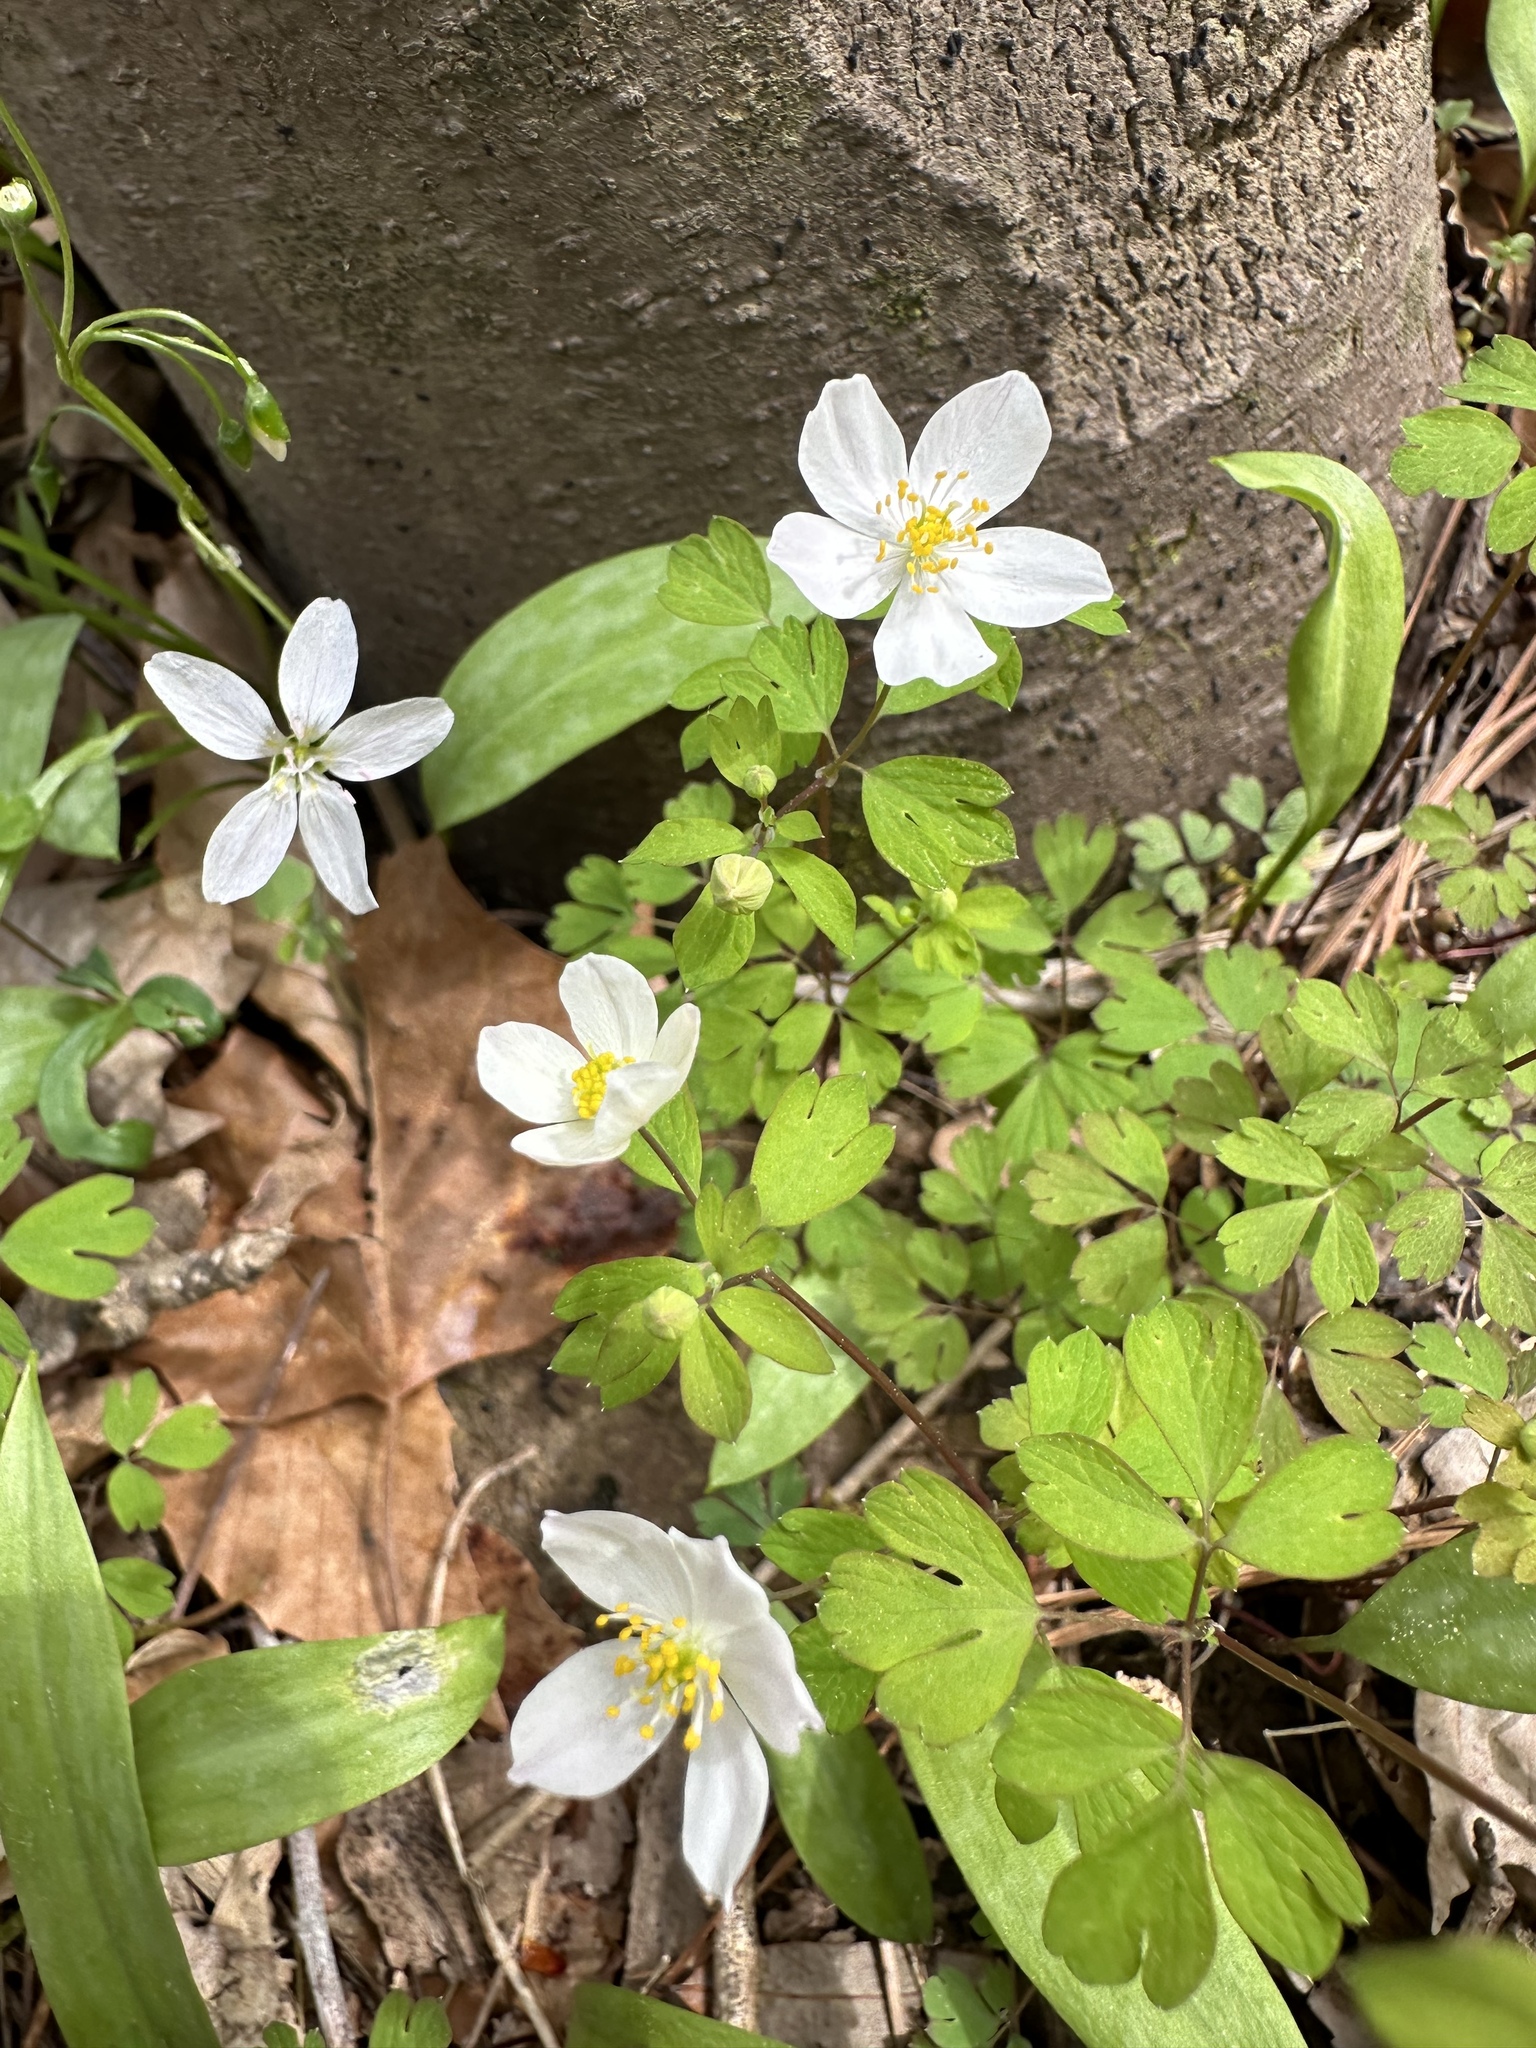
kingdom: Plantae
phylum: Tracheophyta
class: Magnoliopsida
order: Ranunculales
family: Ranunculaceae
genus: Enemion
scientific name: Enemion biternatum
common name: Eastern false rue-anemone
